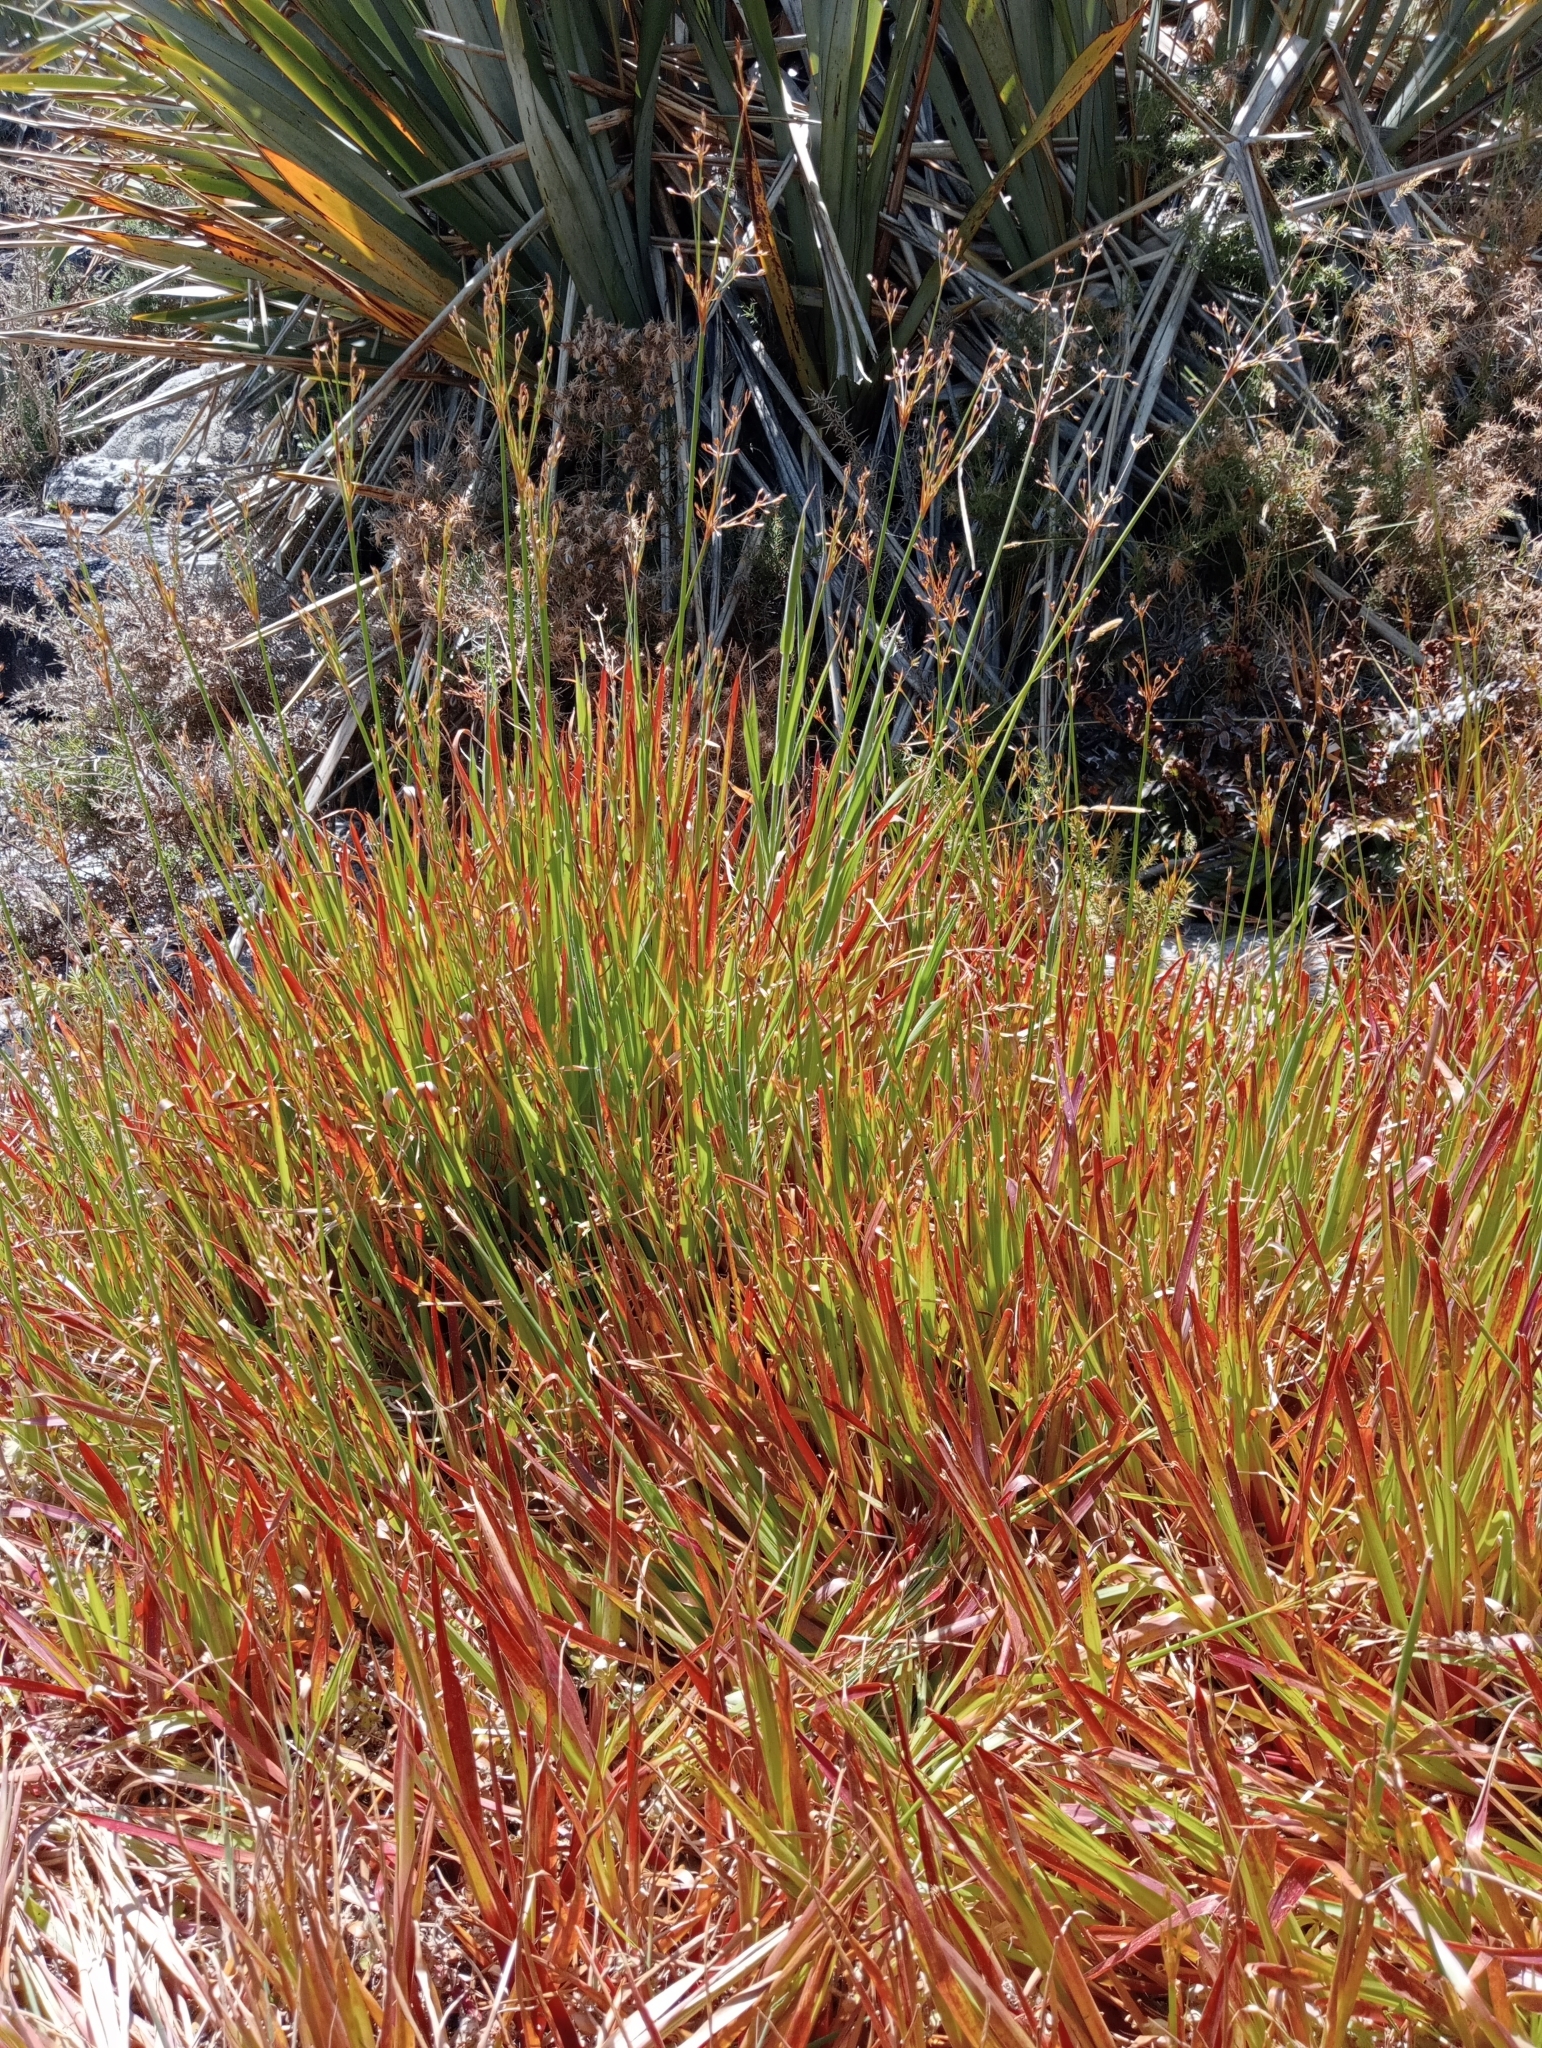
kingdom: Plantae
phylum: Tracheophyta
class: Liliopsida
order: Poales
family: Juncaceae
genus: Juncus
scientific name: Juncus planifolius
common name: Broadleaf rush
